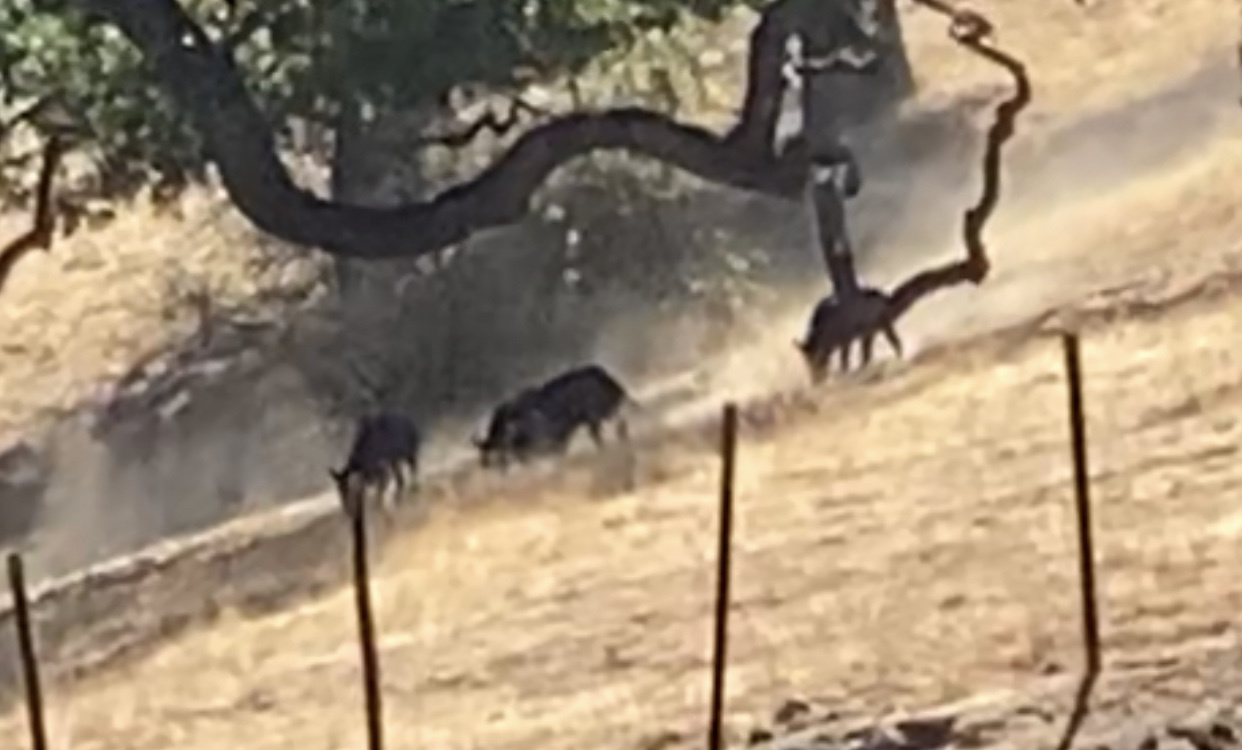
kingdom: Animalia
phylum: Chordata
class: Mammalia
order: Artiodactyla
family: Suidae
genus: Sus
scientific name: Sus scrofa
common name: Wild boar
